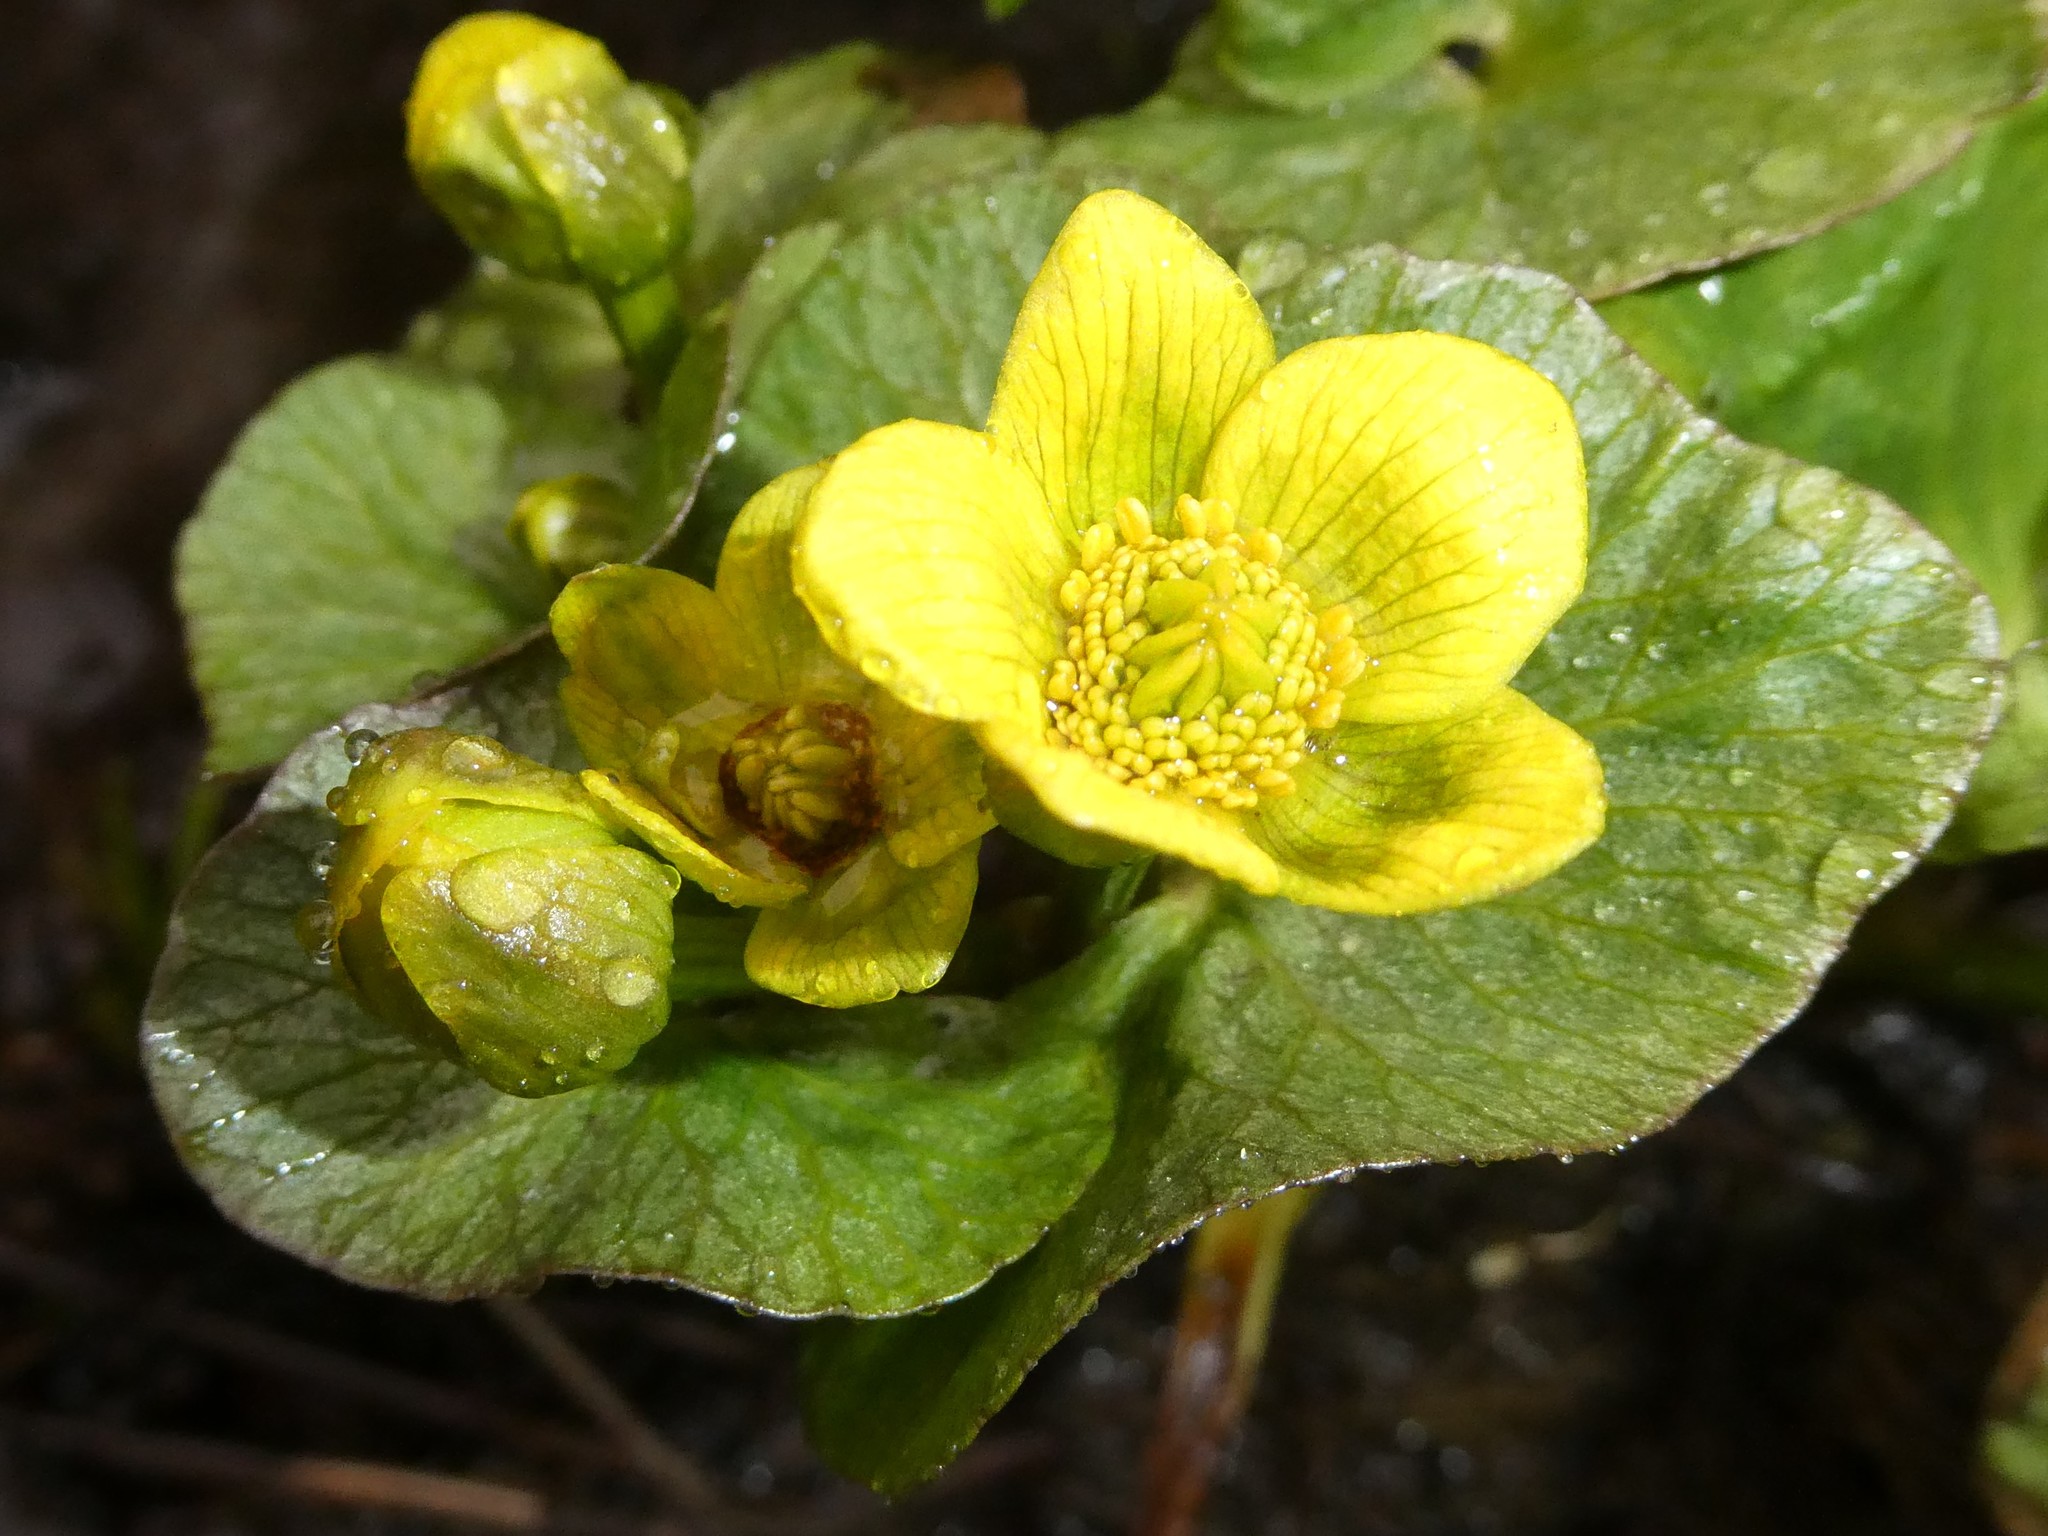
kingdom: Plantae
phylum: Tracheophyta
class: Magnoliopsida
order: Ranunculales
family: Ranunculaceae
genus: Caltha
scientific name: Caltha palustris
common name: Marsh marigold
